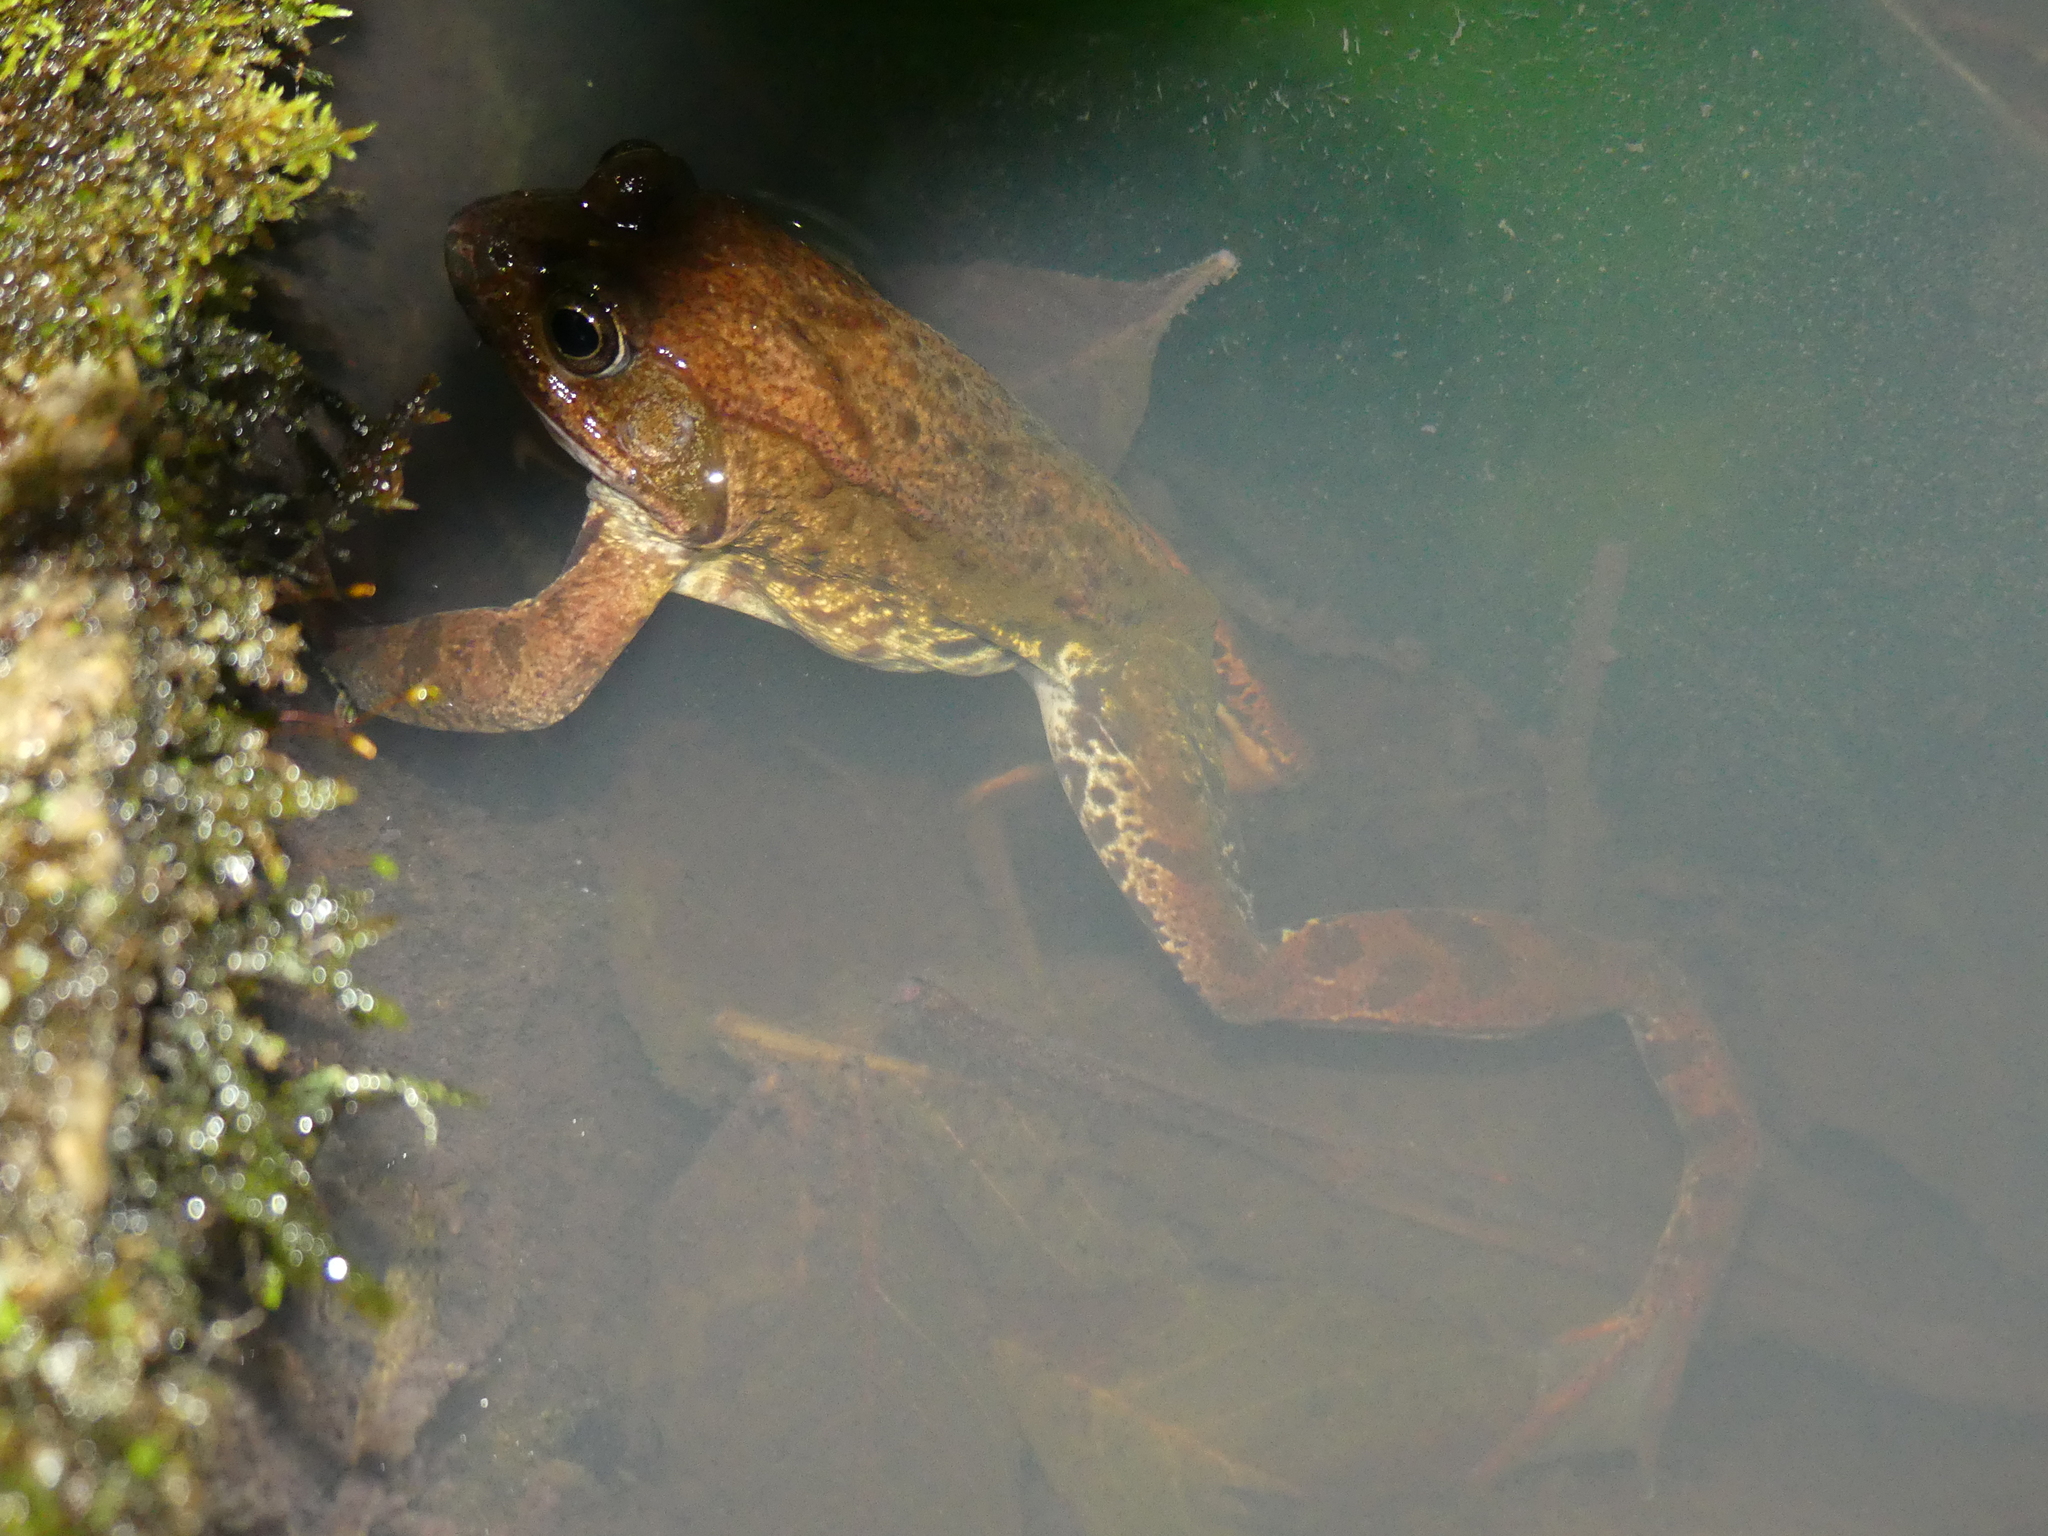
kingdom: Animalia
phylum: Chordata
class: Amphibia
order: Anura
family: Ranidae
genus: Rana
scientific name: Rana temporaria
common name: Common frog
